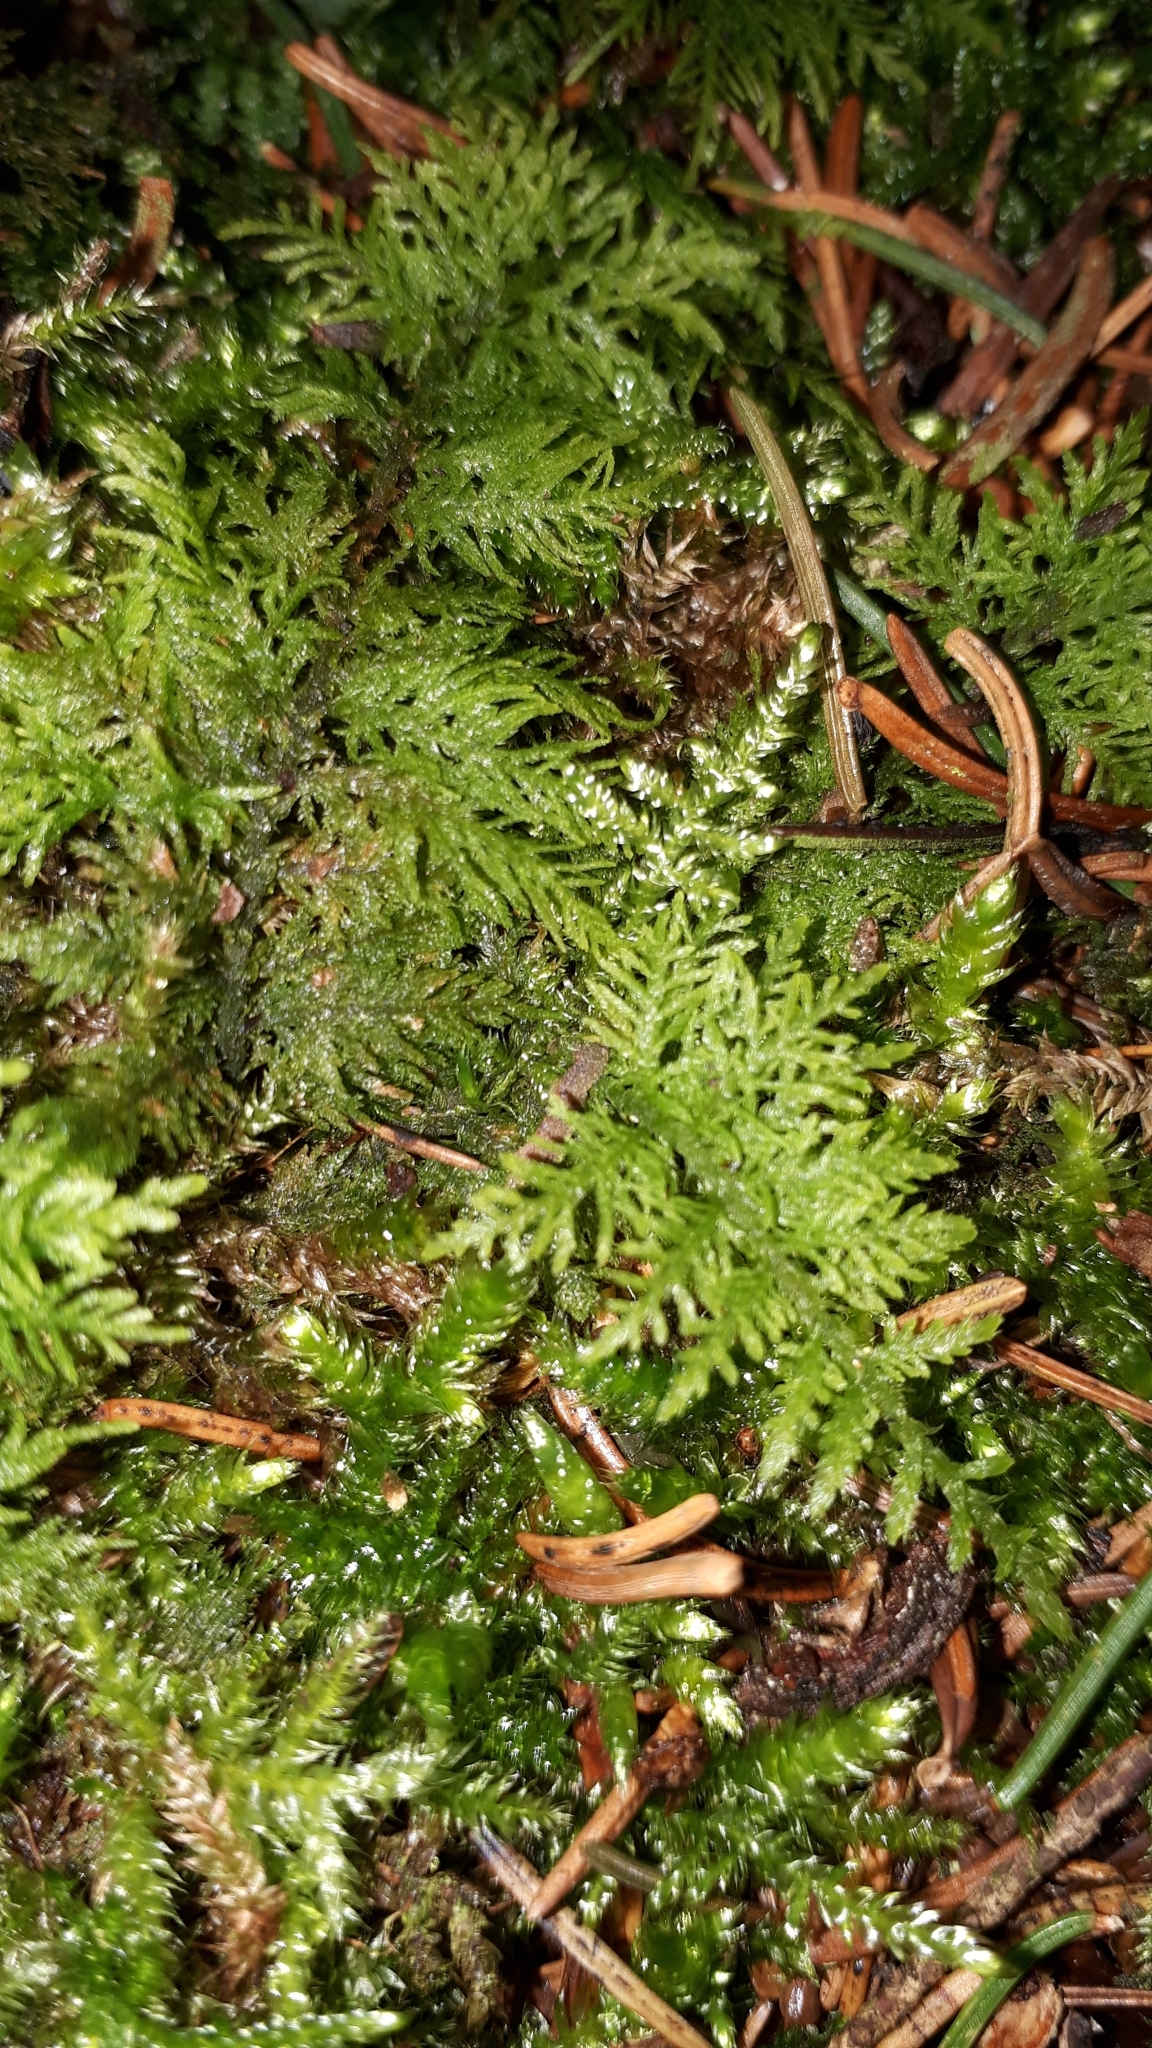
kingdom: Plantae
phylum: Bryophyta
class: Bryopsida
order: Hypnales
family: Thuidiaceae
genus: Thuidium
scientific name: Thuidium tamariscinum
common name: Common tamarisk-moss
